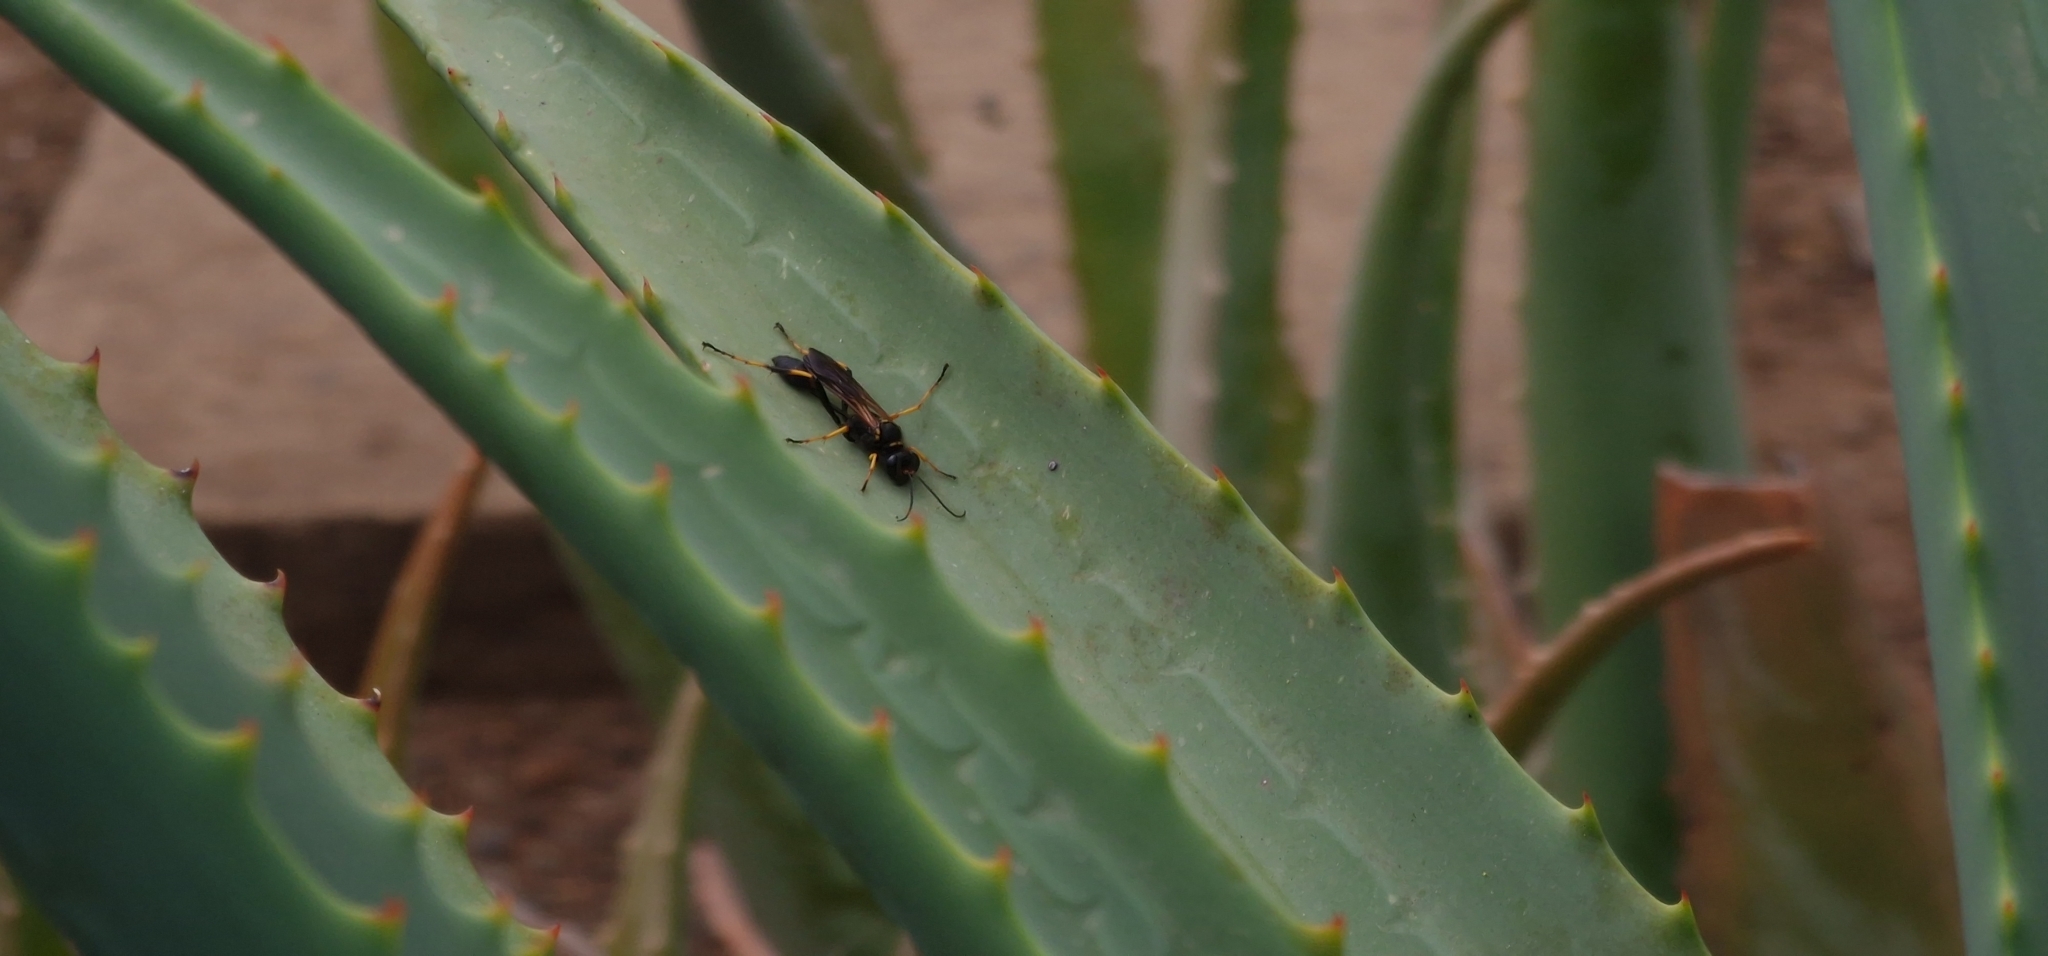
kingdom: Animalia
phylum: Arthropoda
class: Insecta
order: Hymenoptera
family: Sphecidae
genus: Sceliphron
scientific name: Sceliphron caementarium
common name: Mud dauber
